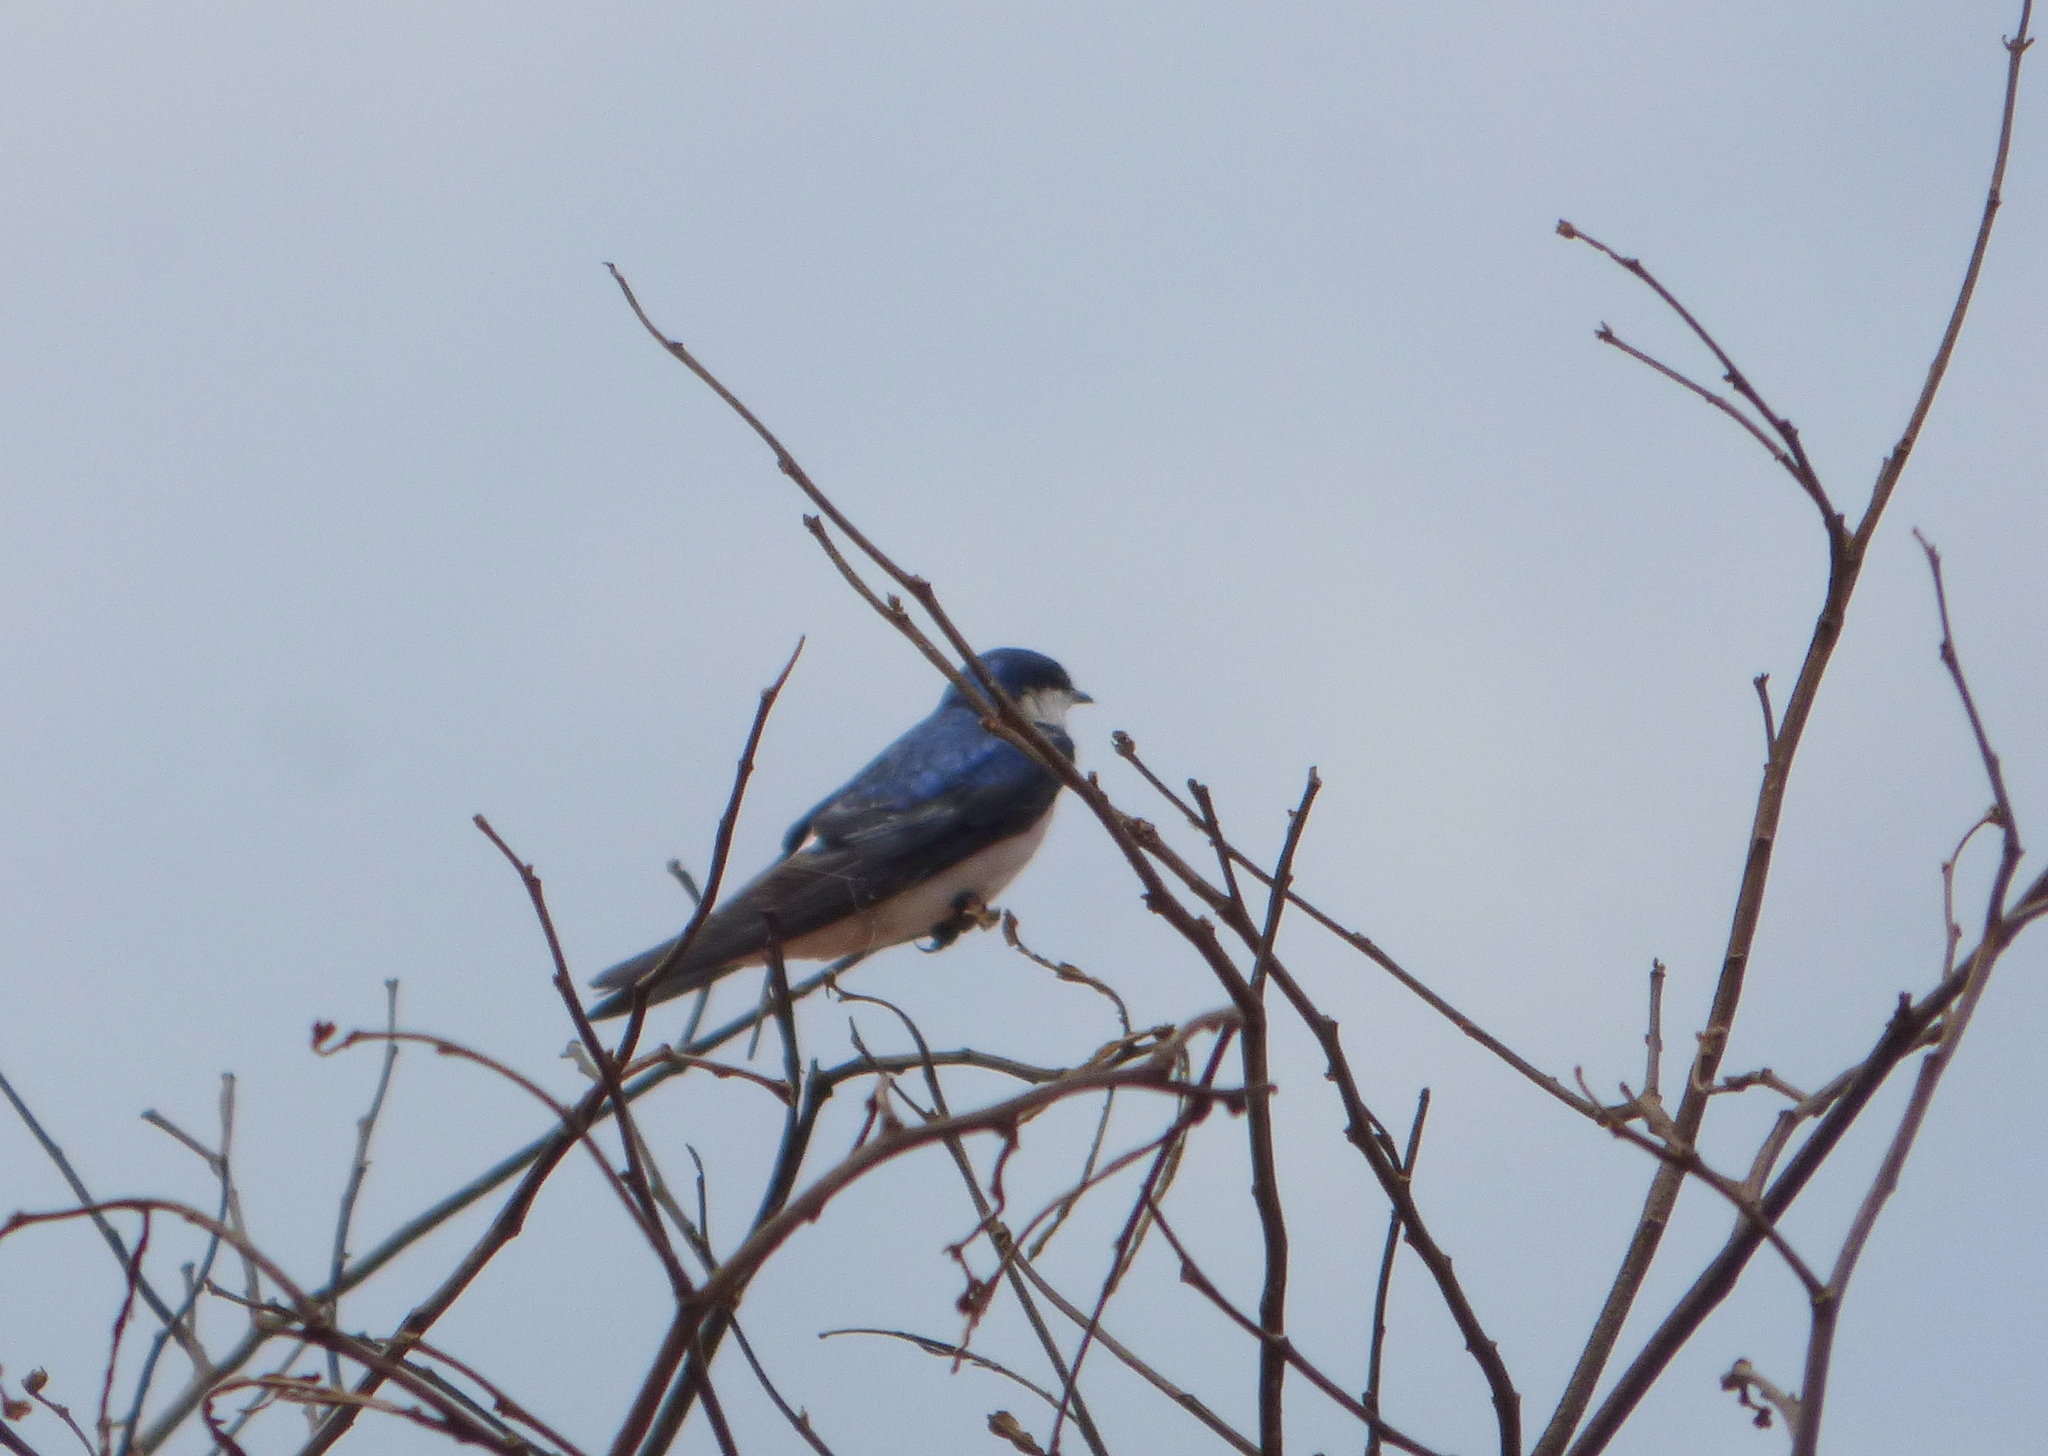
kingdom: Animalia
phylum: Chordata
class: Aves
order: Passeriformes
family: Hirundinidae
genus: Tachycineta
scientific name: Tachycineta leucorrhoa
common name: White-rumped swallow
